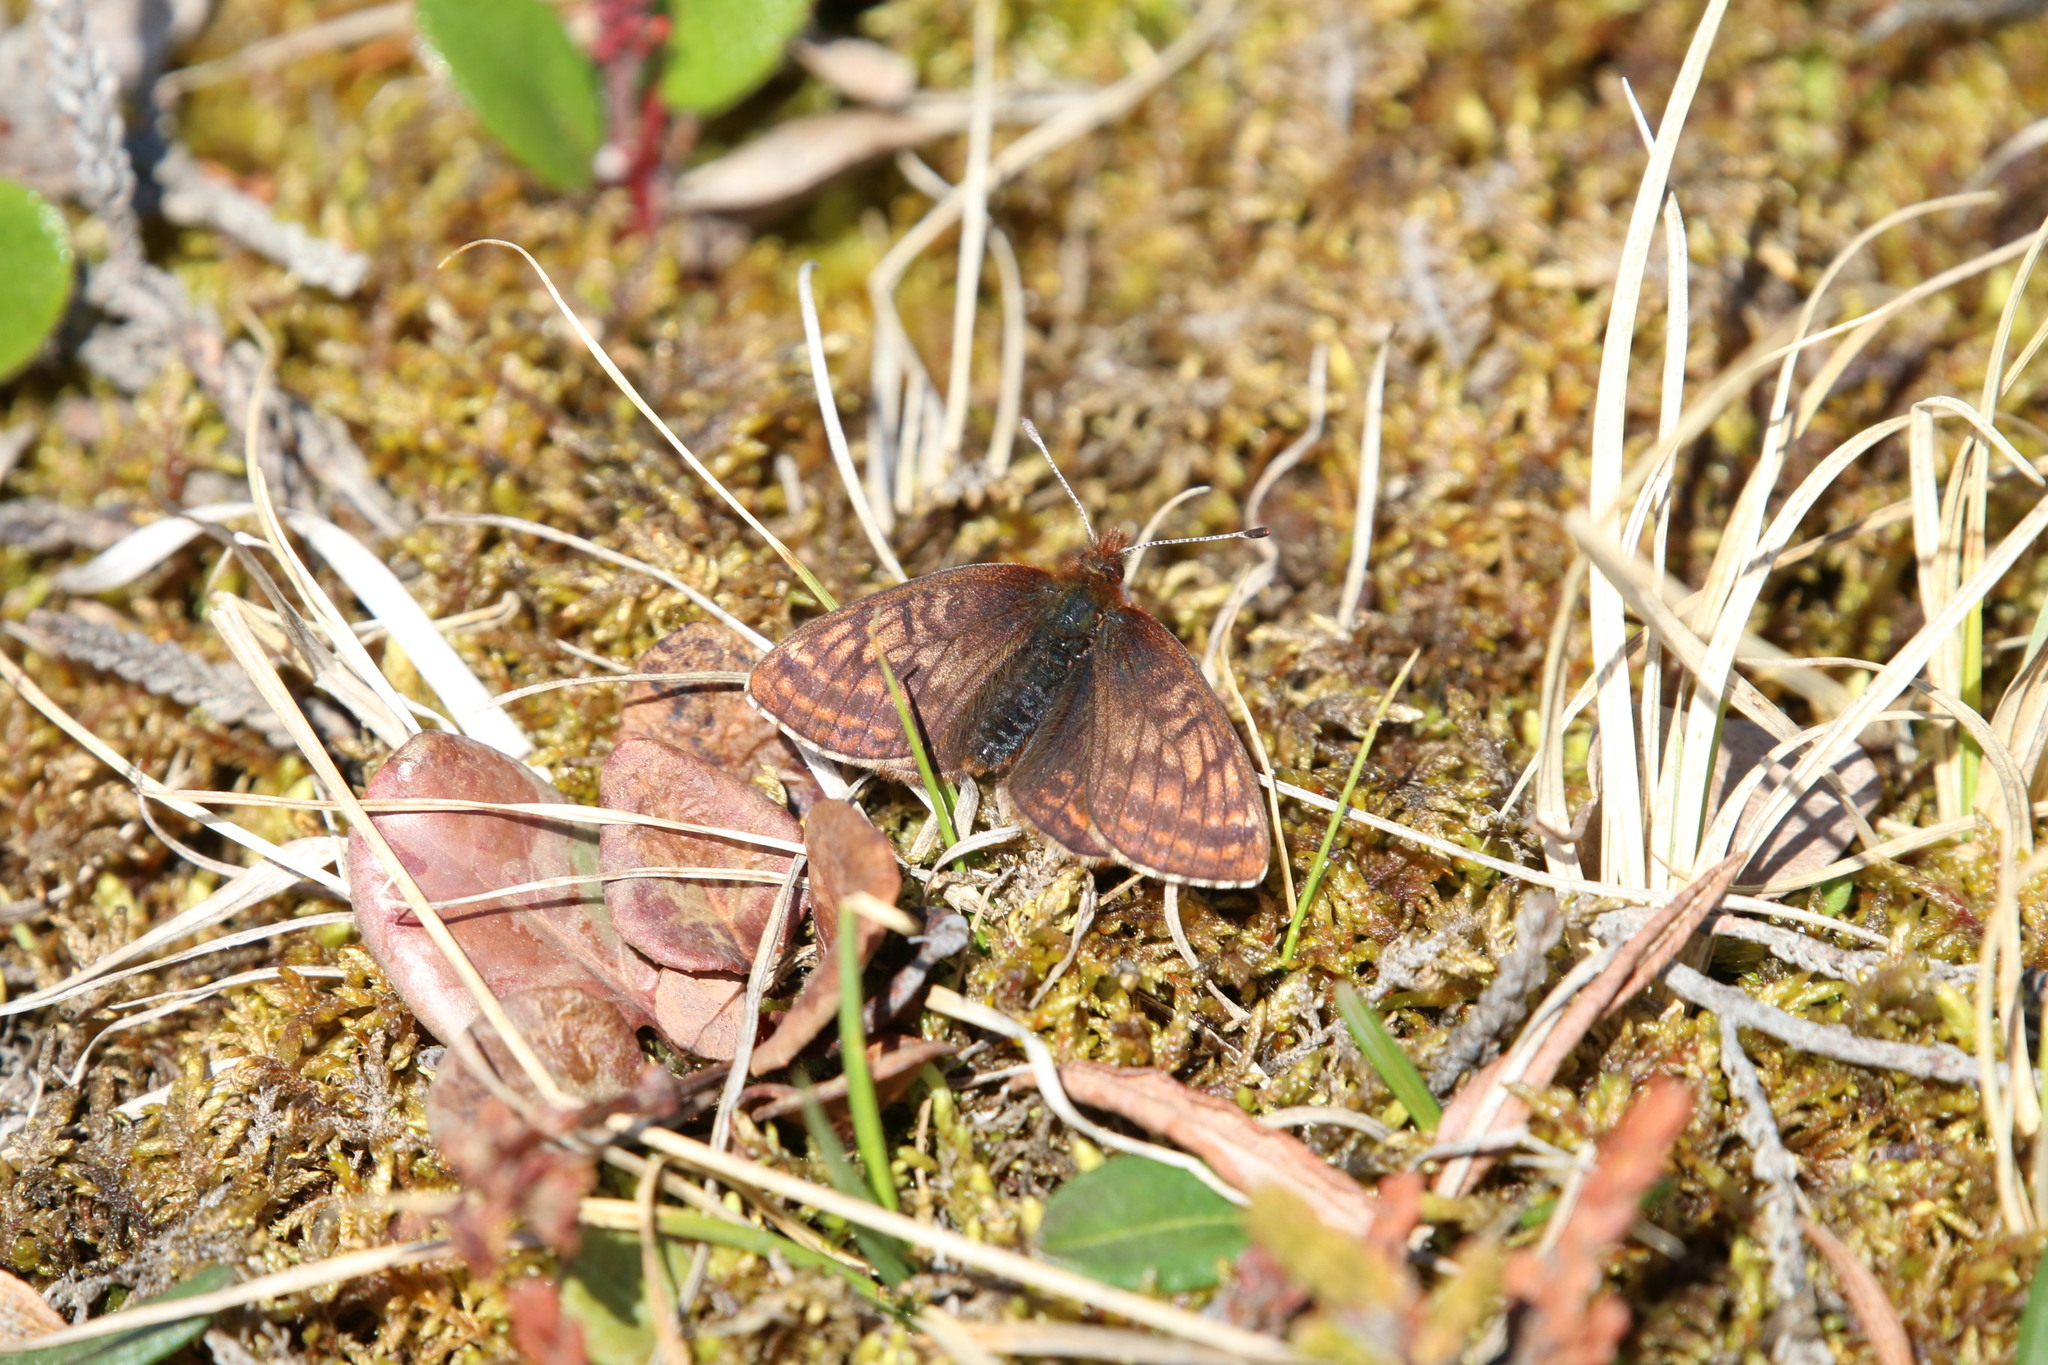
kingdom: Animalia
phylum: Arthropoda
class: Insecta
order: Lepidoptera
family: Nymphalidae
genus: Clossiana
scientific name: Clossiana improba
